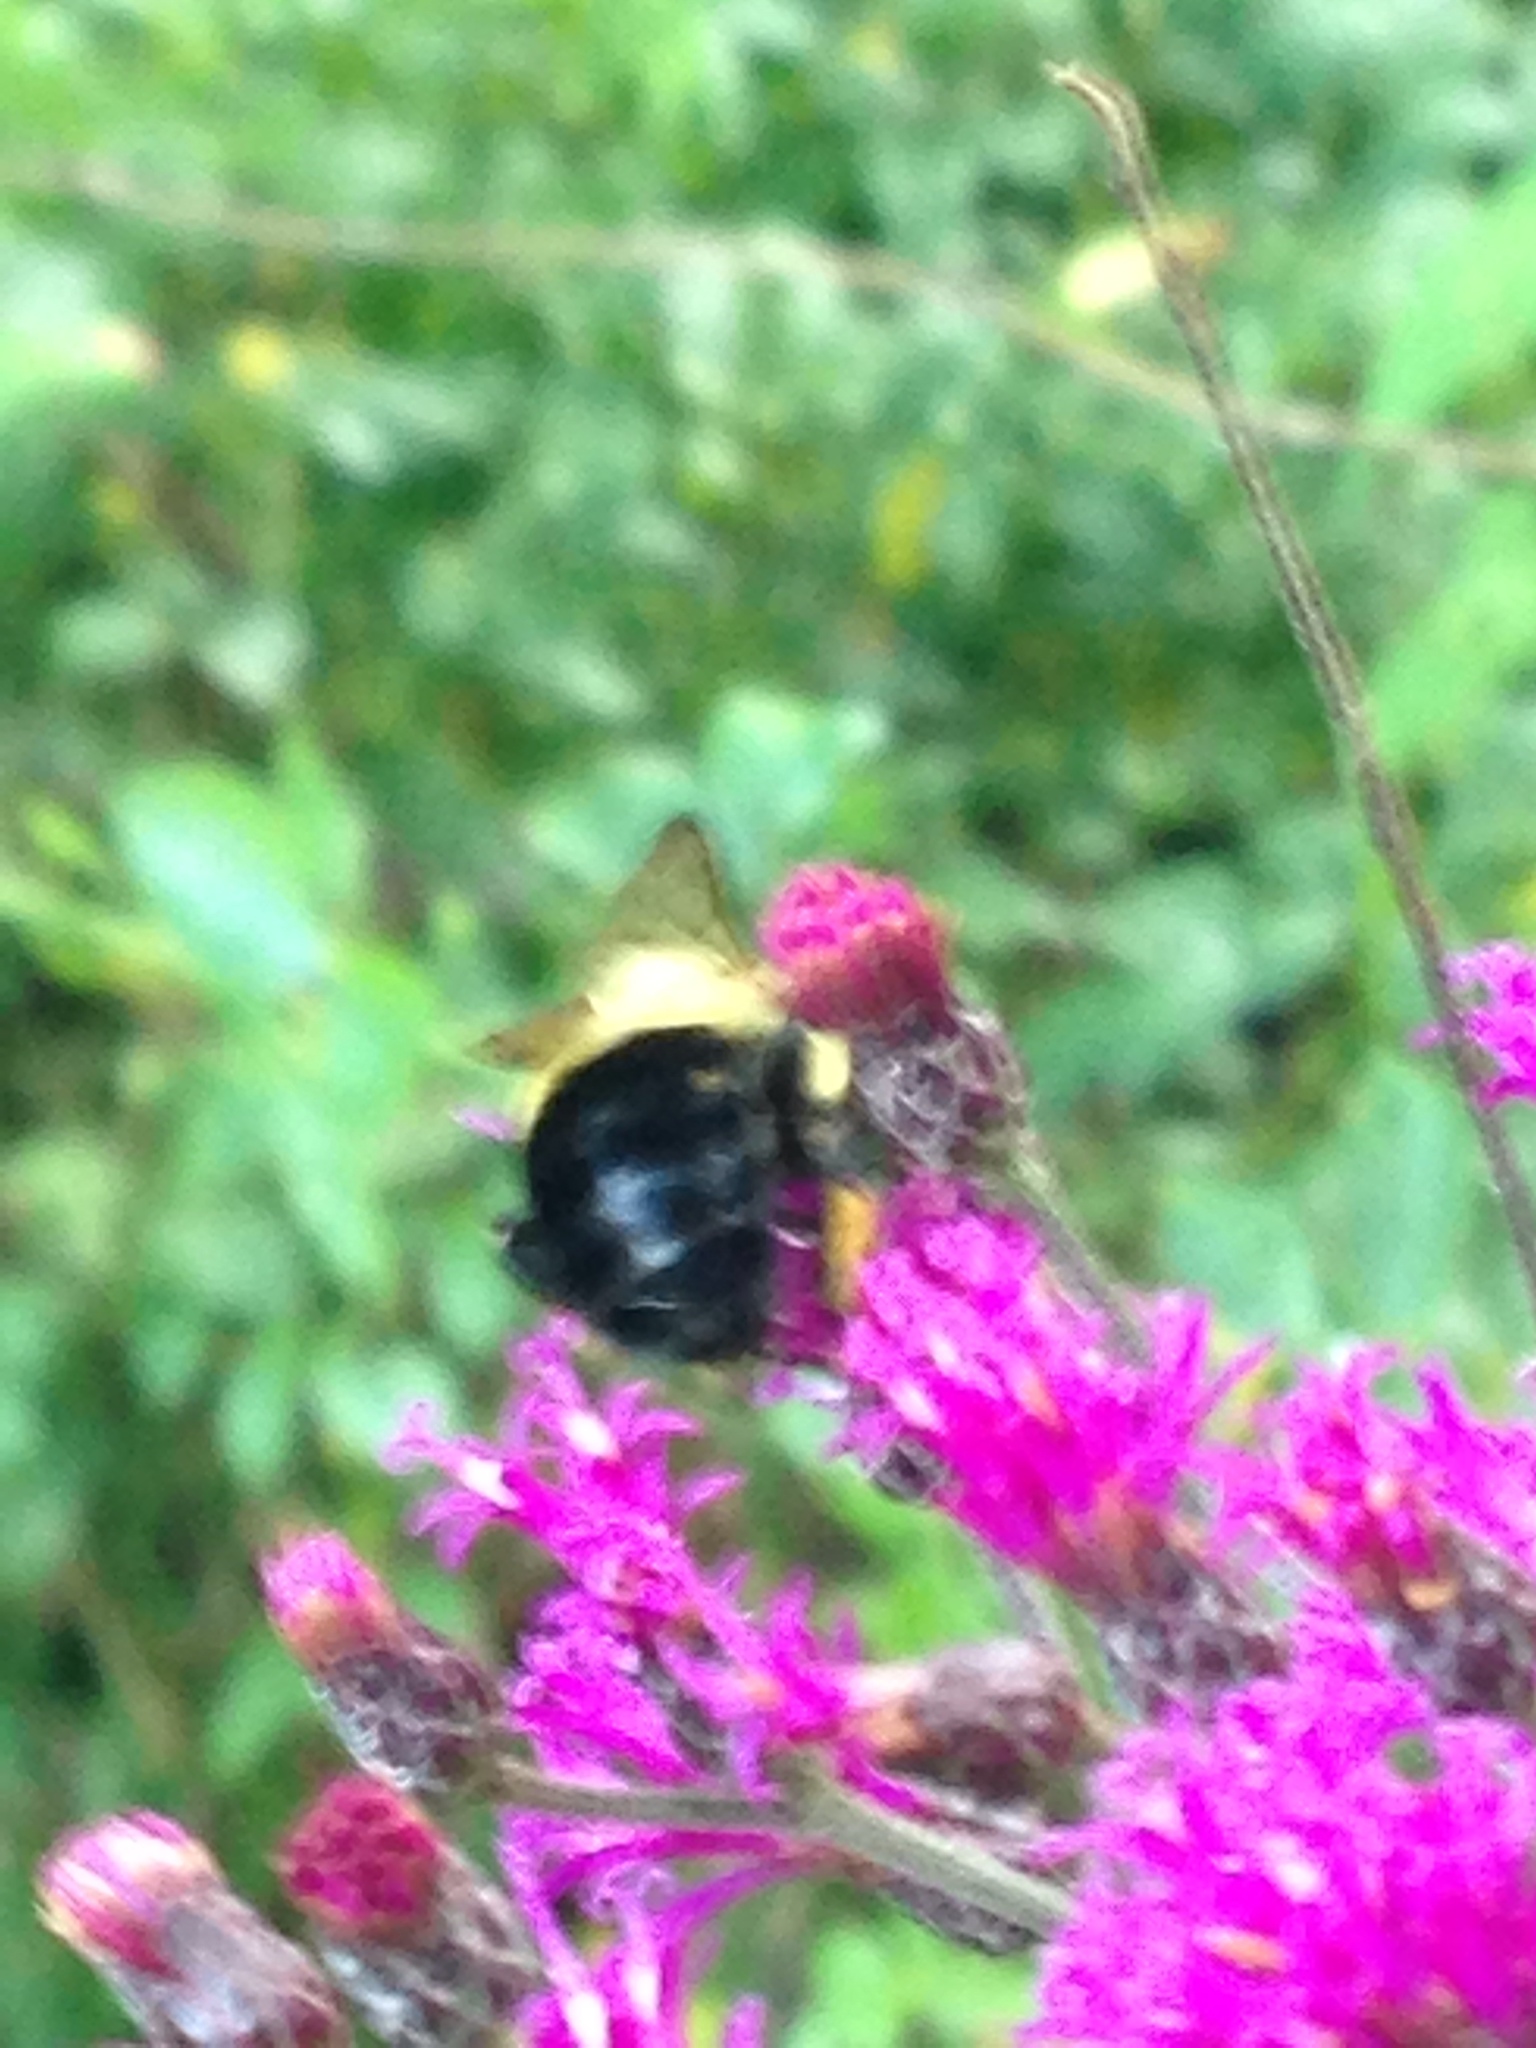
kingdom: Animalia
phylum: Arthropoda
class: Insecta
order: Hymenoptera
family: Apidae
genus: Bombus
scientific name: Bombus impatiens
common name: Common eastern bumble bee
